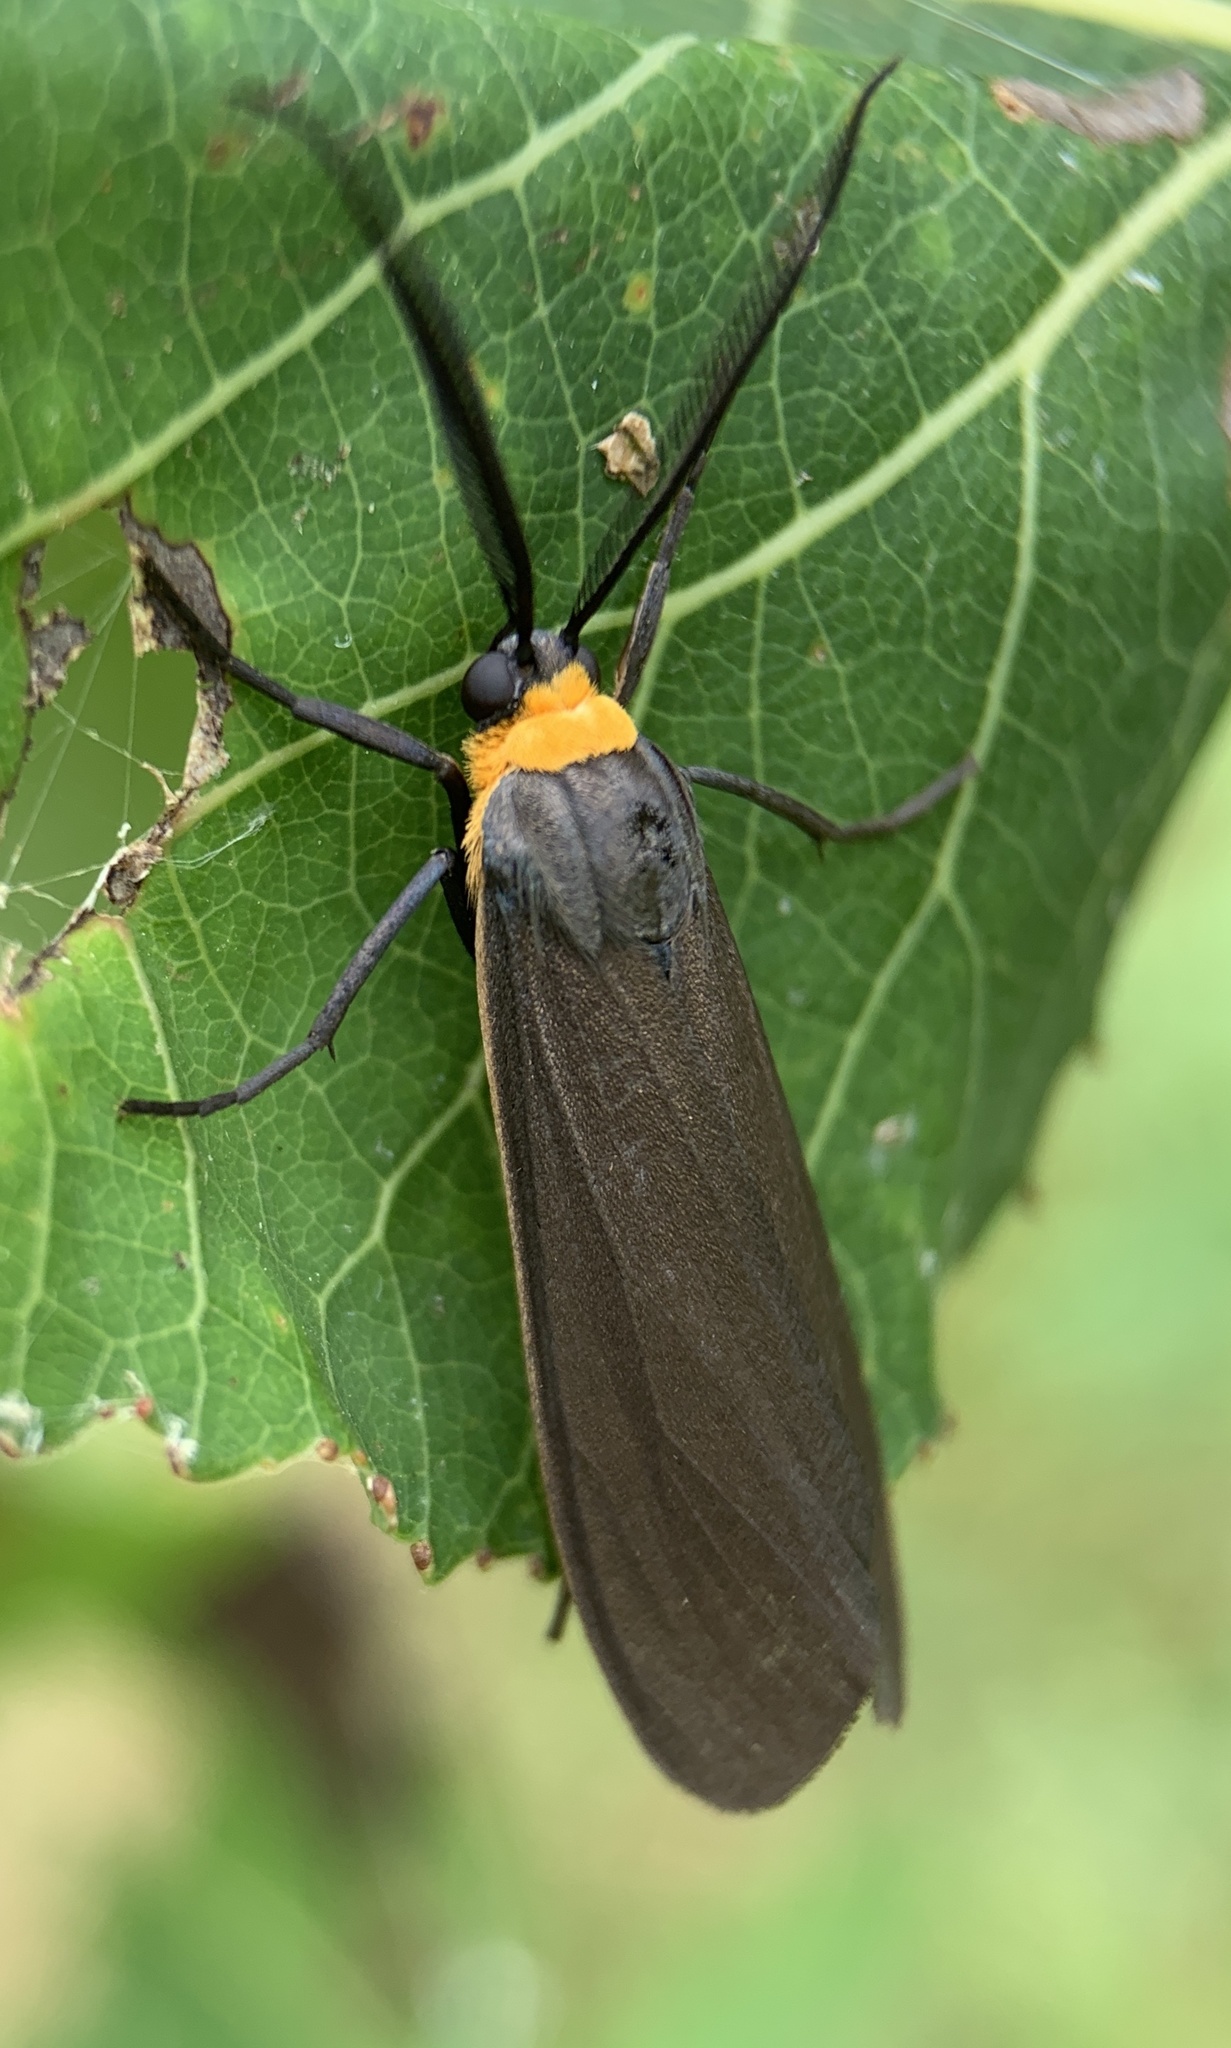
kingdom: Animalia
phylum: Arthropoda
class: Insecta
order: Lepidoptera
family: Erebidae
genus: Cisseps
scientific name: Cisseps fulvicollis
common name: Yellow-collared scape moth
